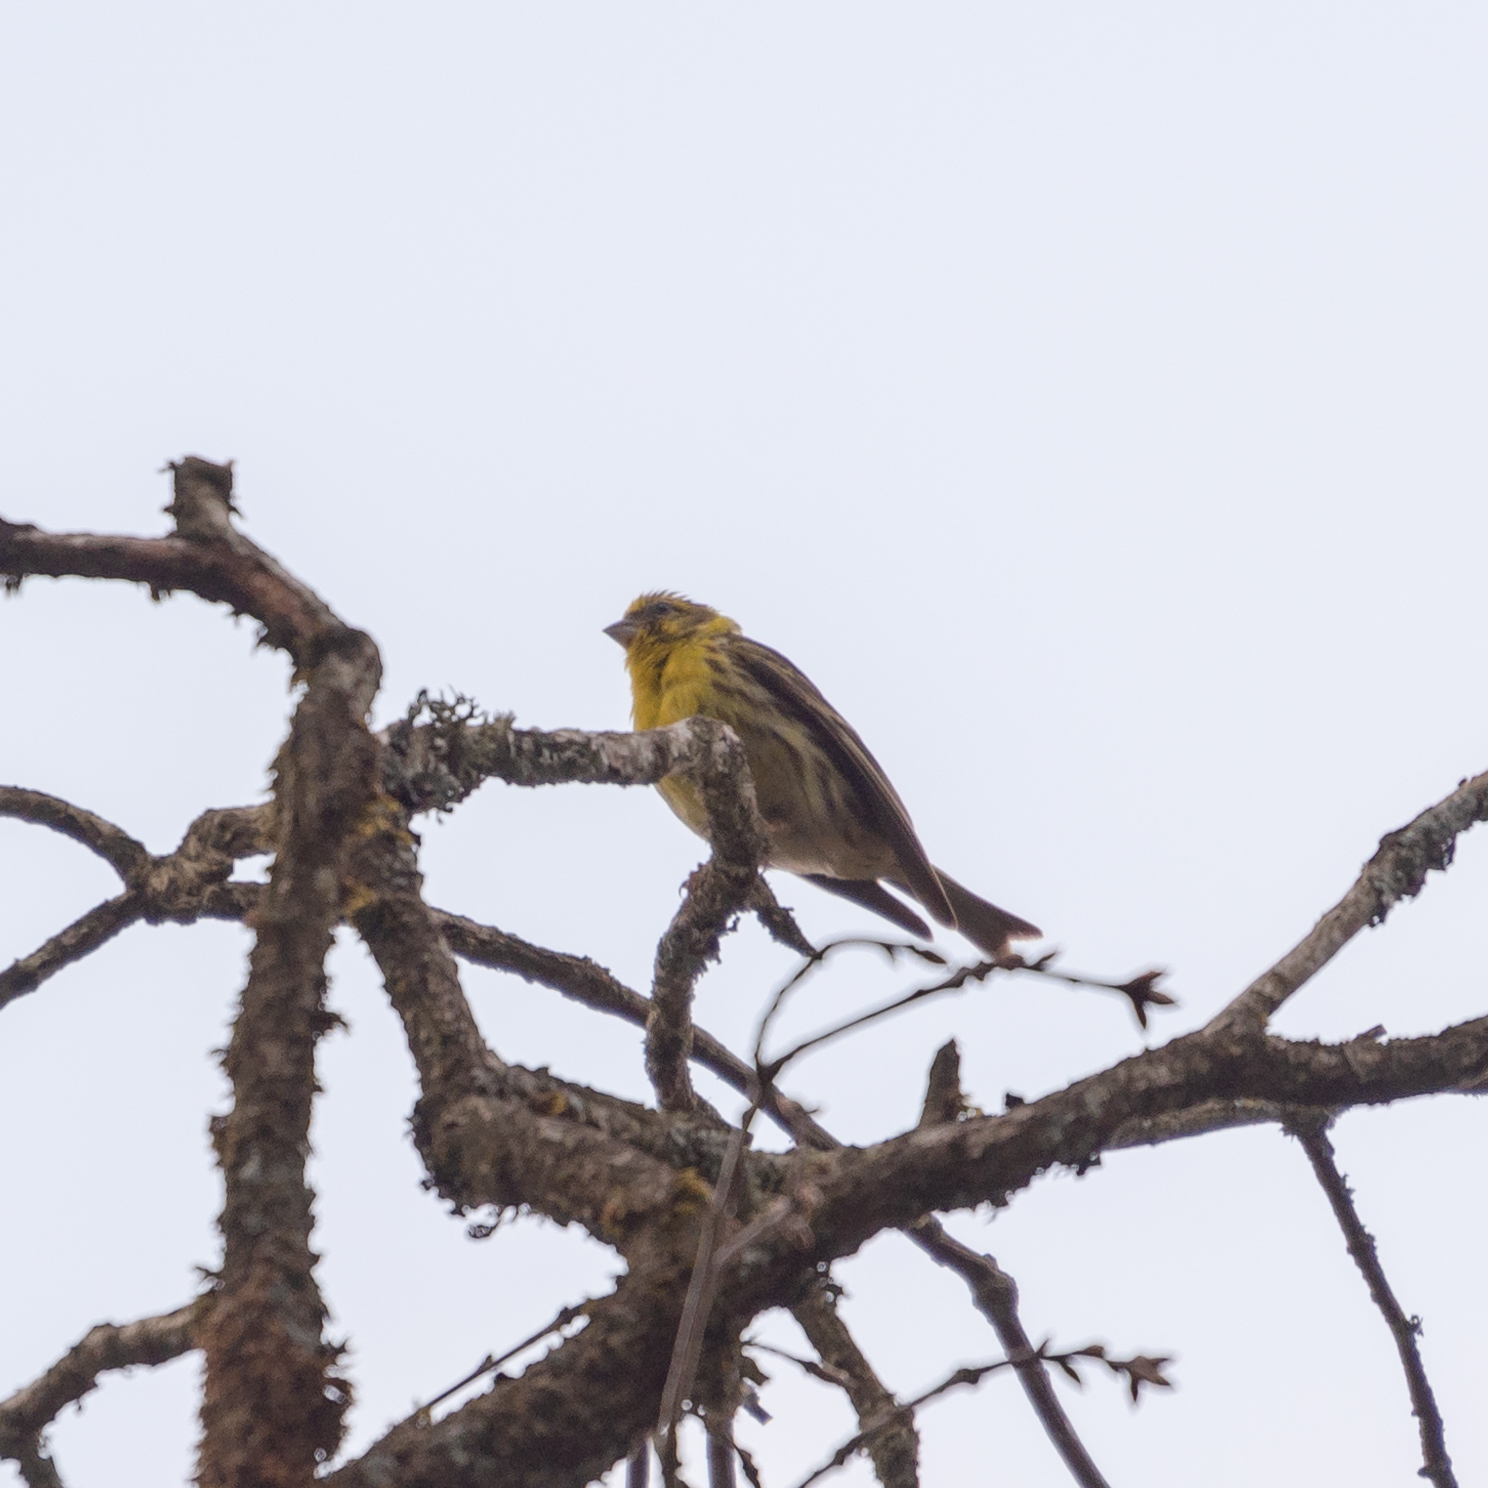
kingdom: Animalia
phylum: Chordata
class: Aves
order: Passeriformes
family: Fringillidae
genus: Serinus
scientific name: Serinus serinus
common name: European serin
